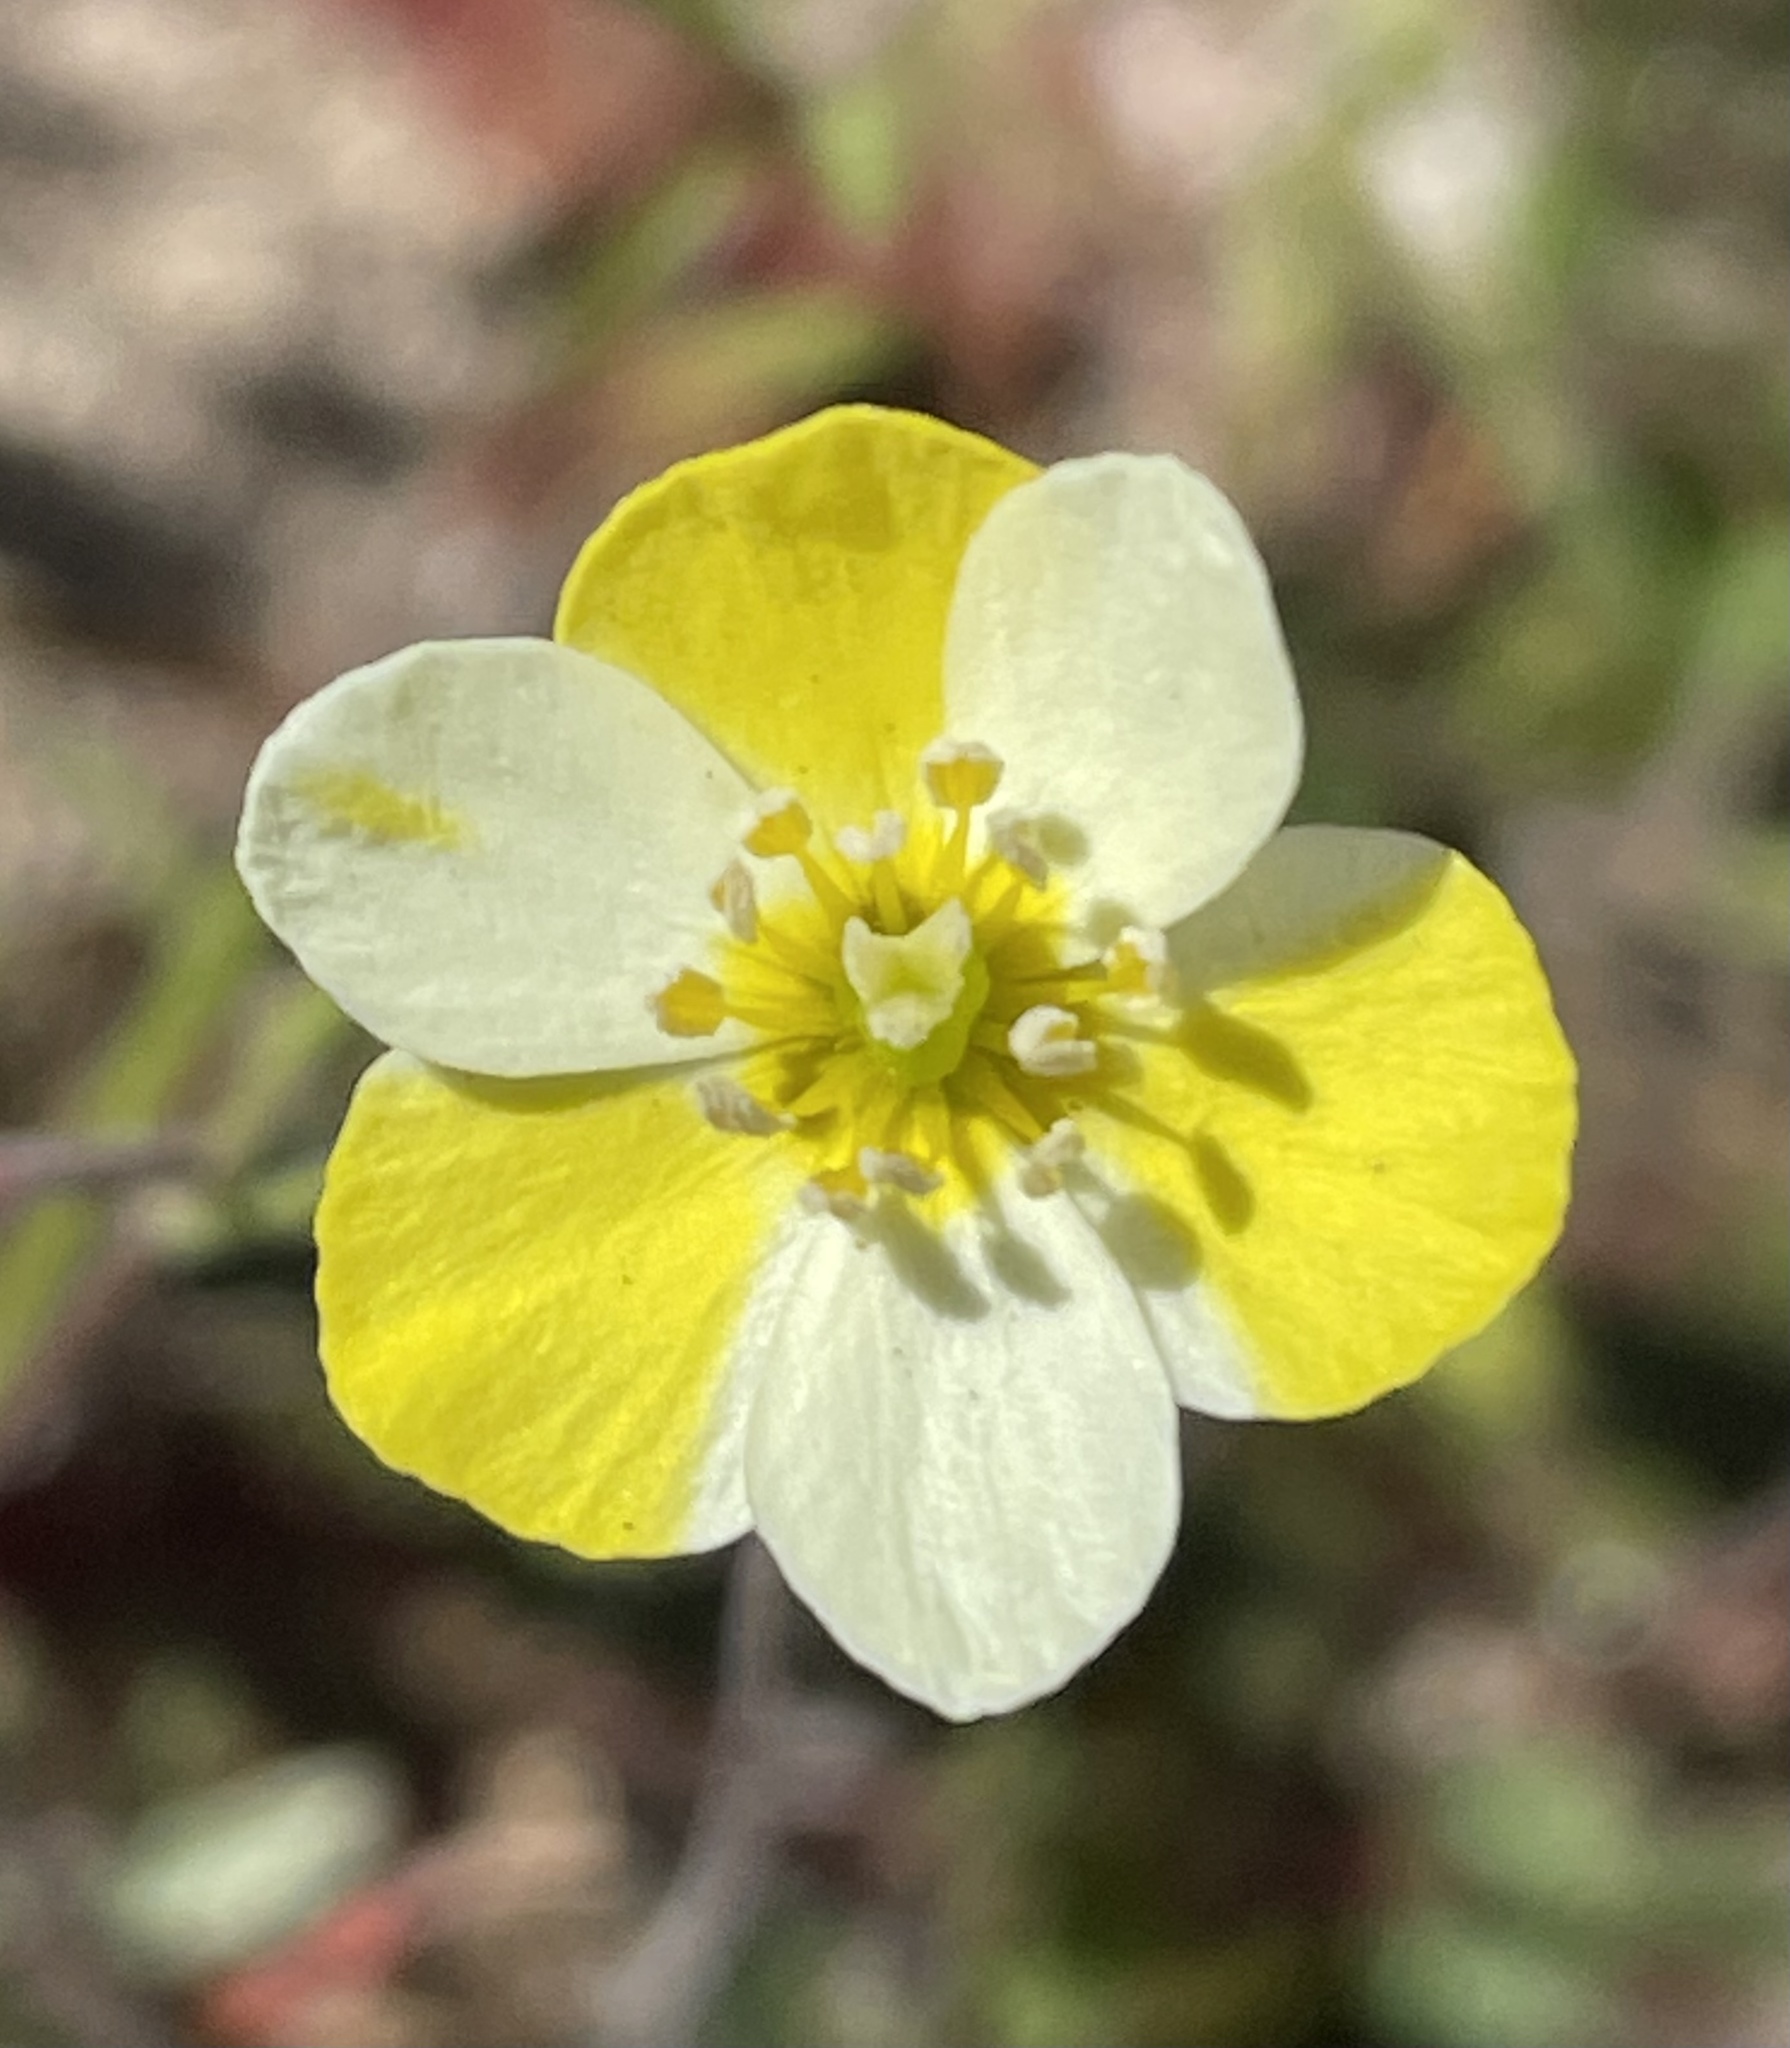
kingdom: Plantae
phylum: Tracheophyta
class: Magnoliopsida
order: Ranunculales
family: Papaveraceae
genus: Platystigma
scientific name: Platystigma lineare
